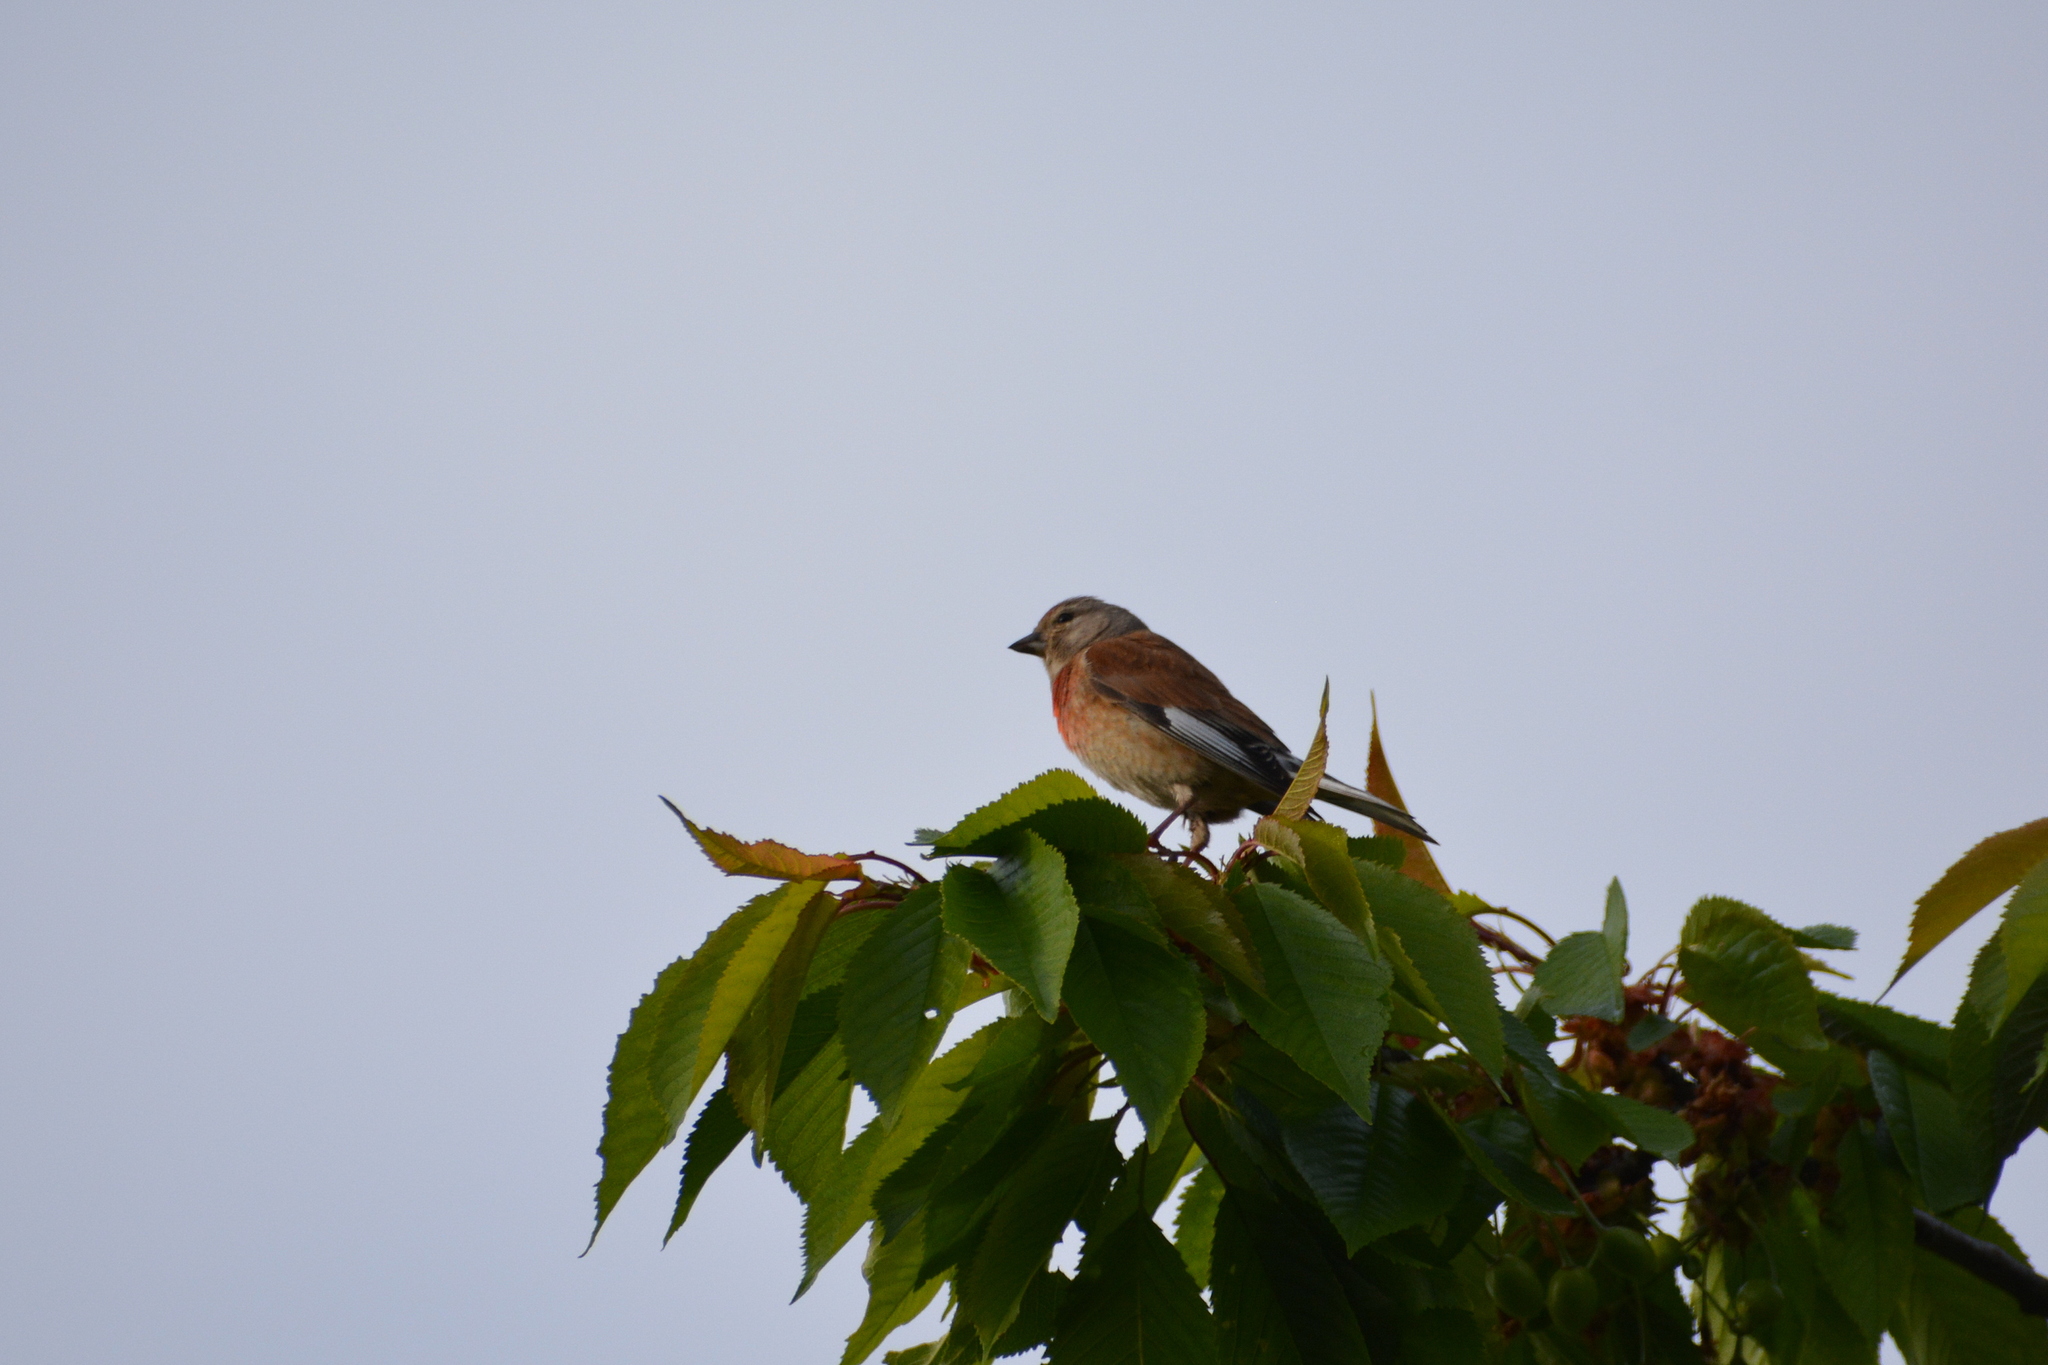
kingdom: Animalia
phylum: Chordata
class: Aves
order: Passeriformes
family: Fringillidae
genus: Linaria
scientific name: Linaria cannabina
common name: Common linnet
